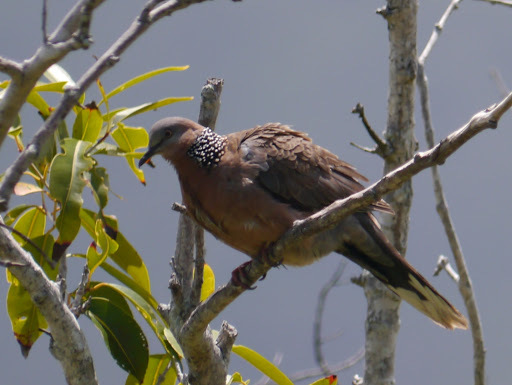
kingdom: Animalia
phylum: Chordata
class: Aves
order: Columbiformes
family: Columbidae
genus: Spilopelia
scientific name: Spilopelia chinensis
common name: Spotted dove
